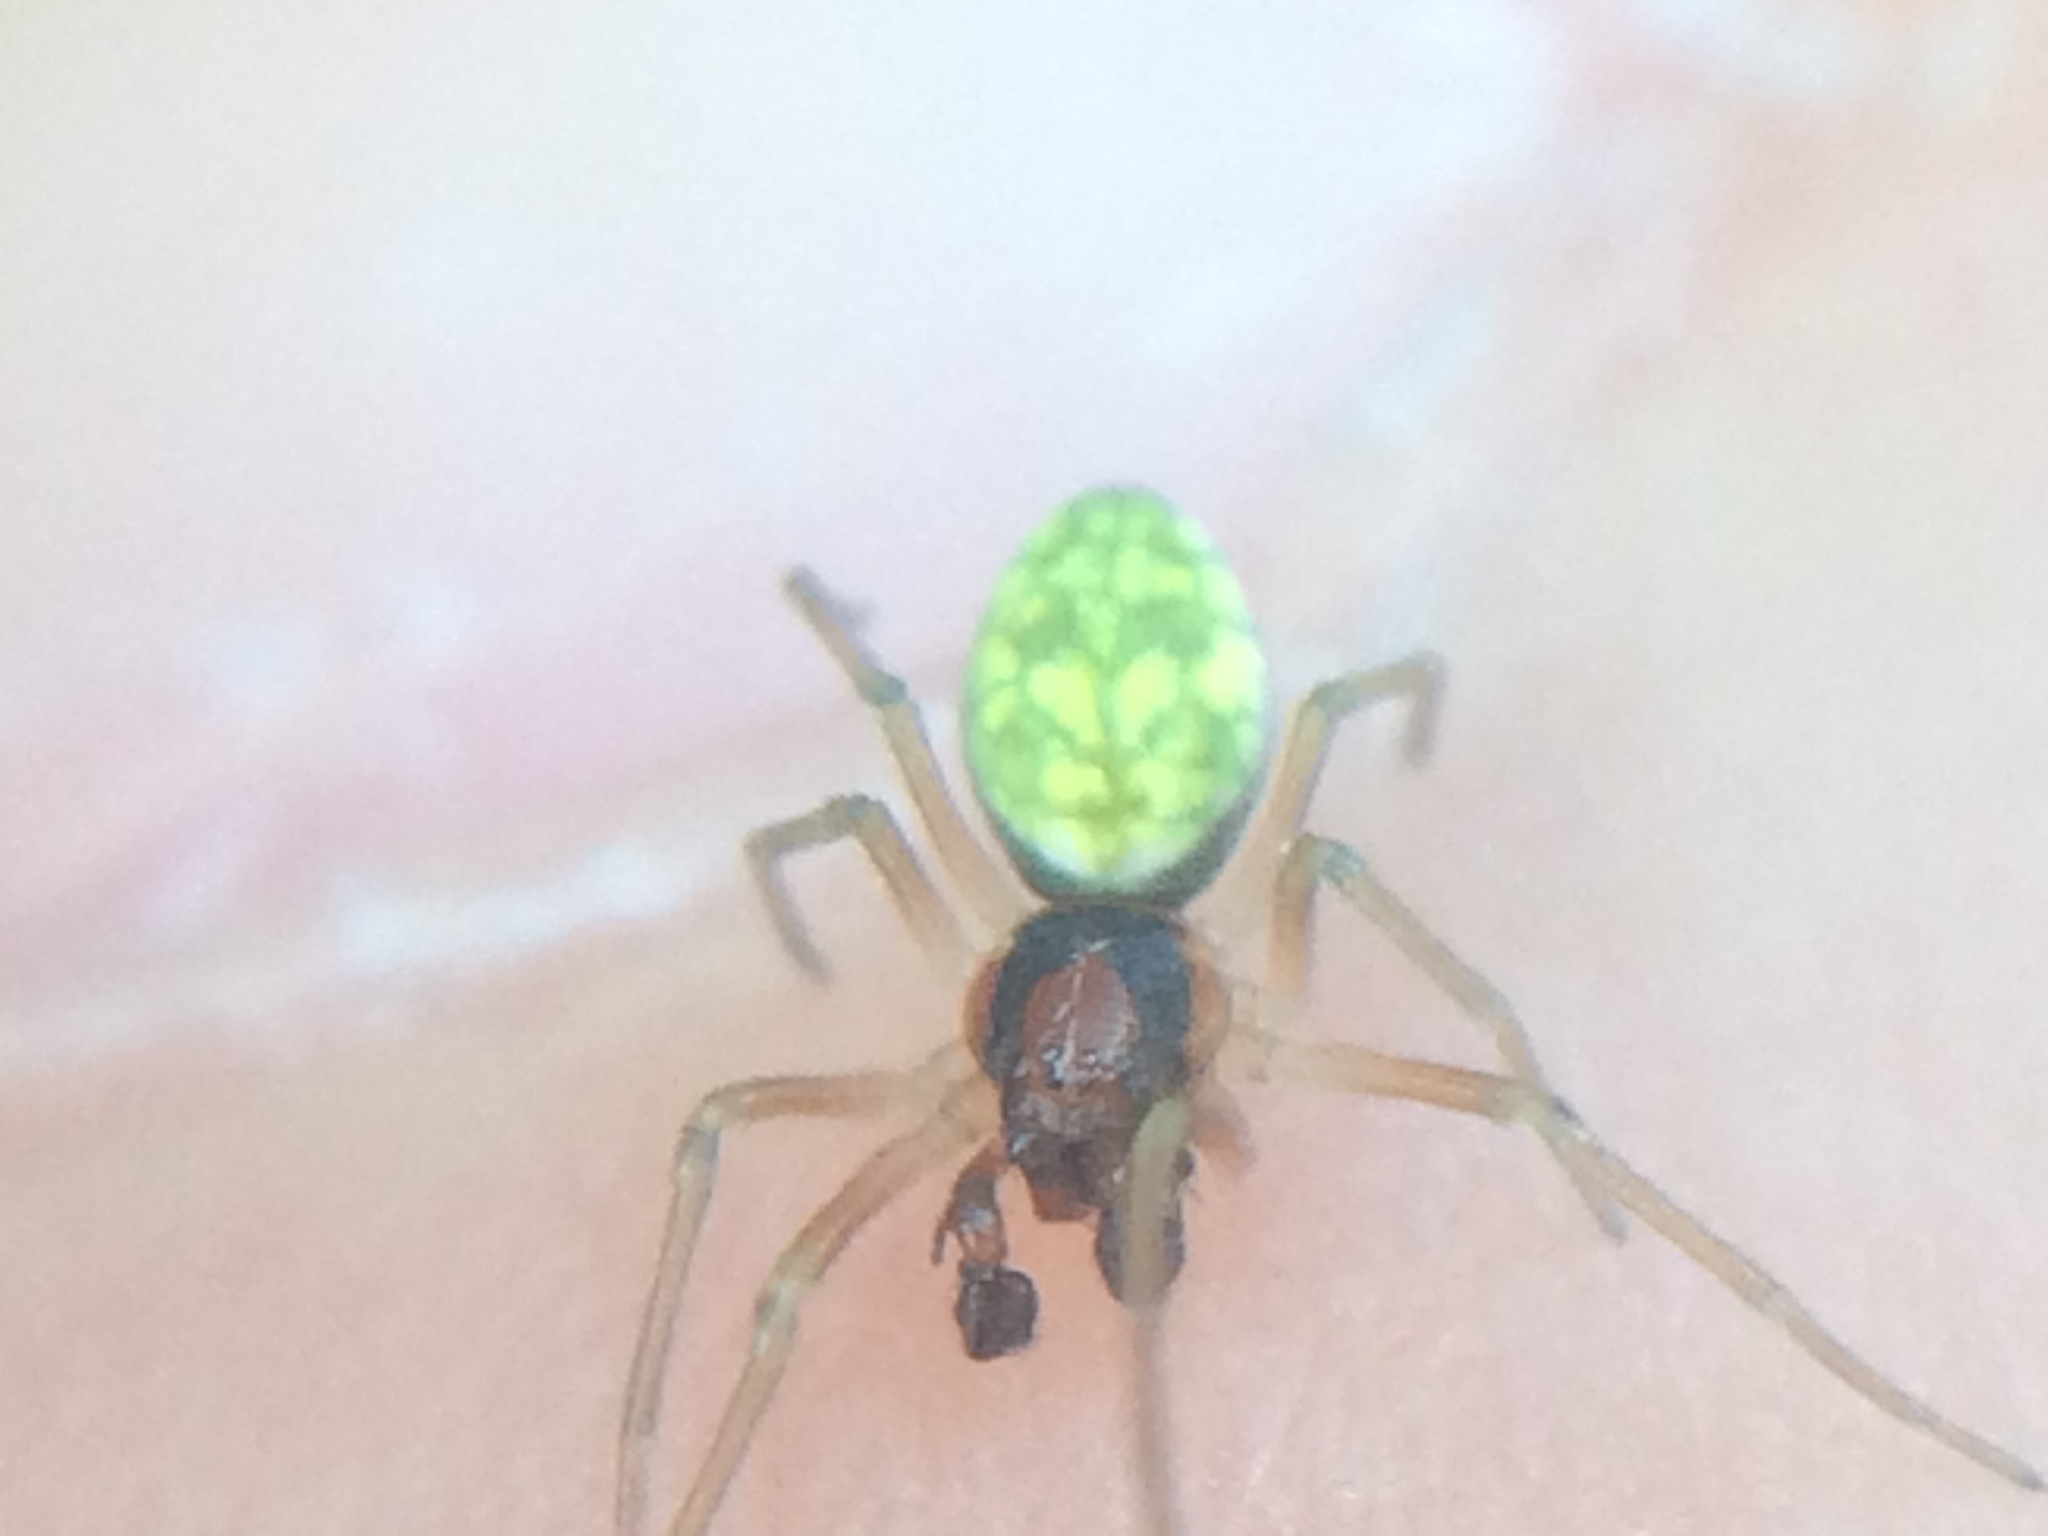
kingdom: Animalia
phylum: Arthropoda
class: Arachnida
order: Araneae
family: Dictynidae
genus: Nigma
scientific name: Nigma linsdalei
